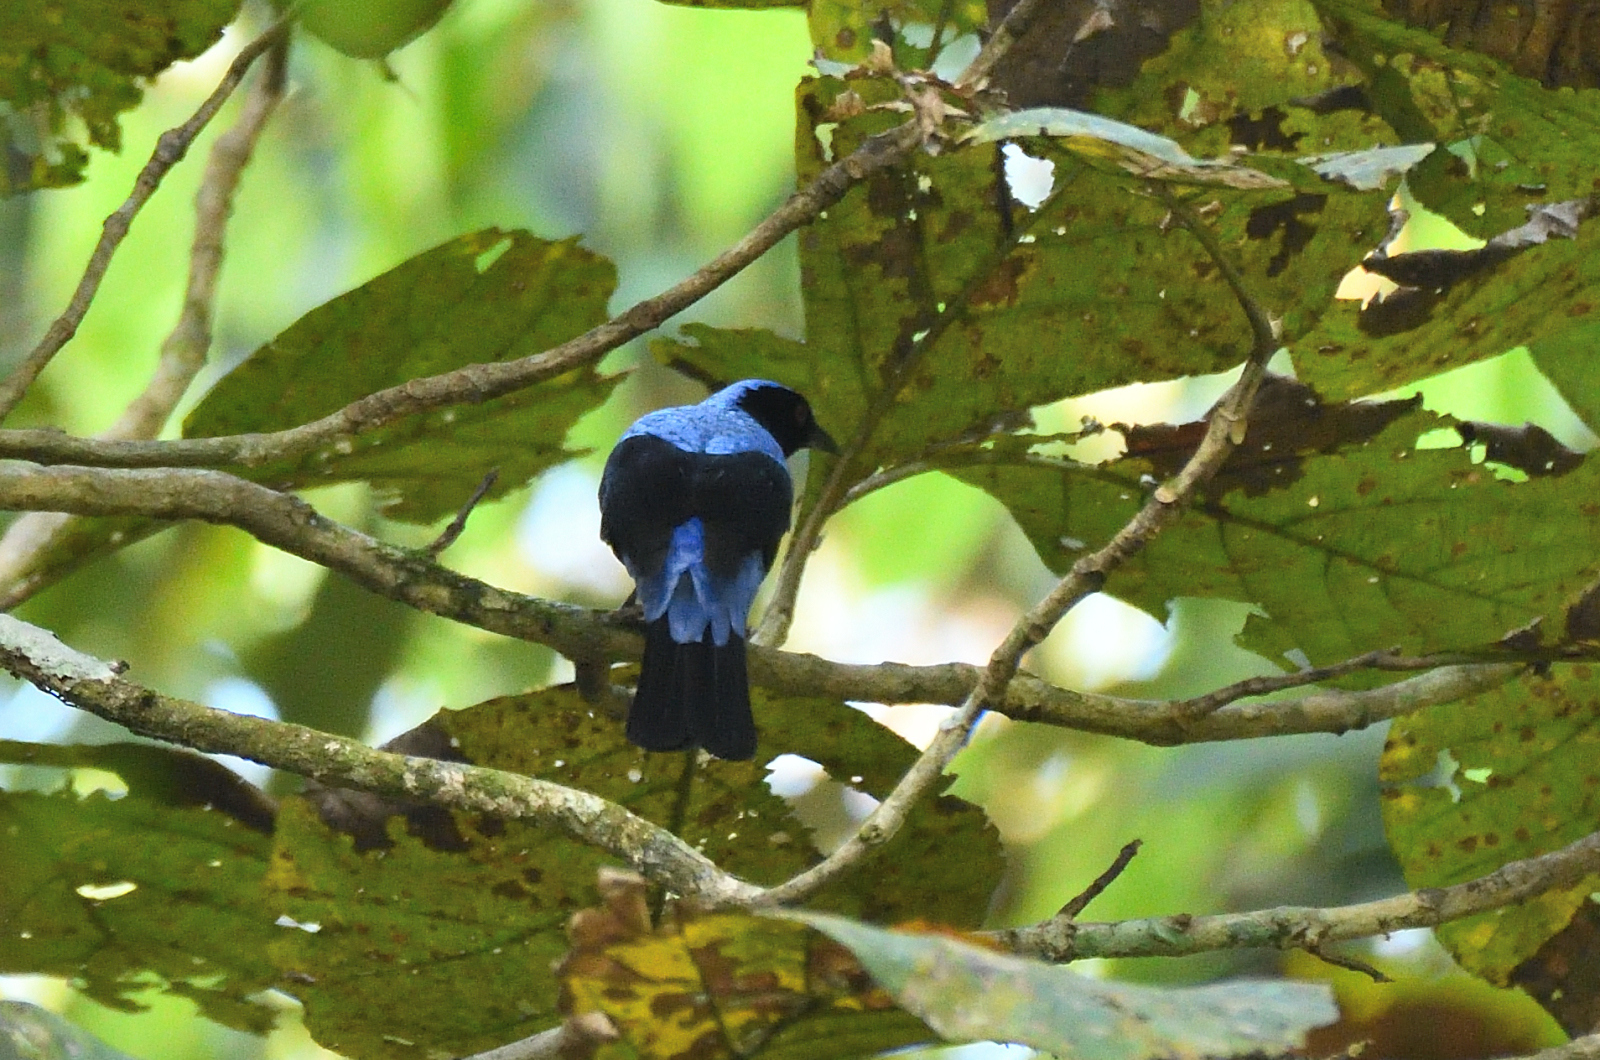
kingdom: Animalia
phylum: Chordata
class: Aves
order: Passeriformes
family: Irenidae
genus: Irena
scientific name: Irena puella
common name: Asian fairy-bluebird
